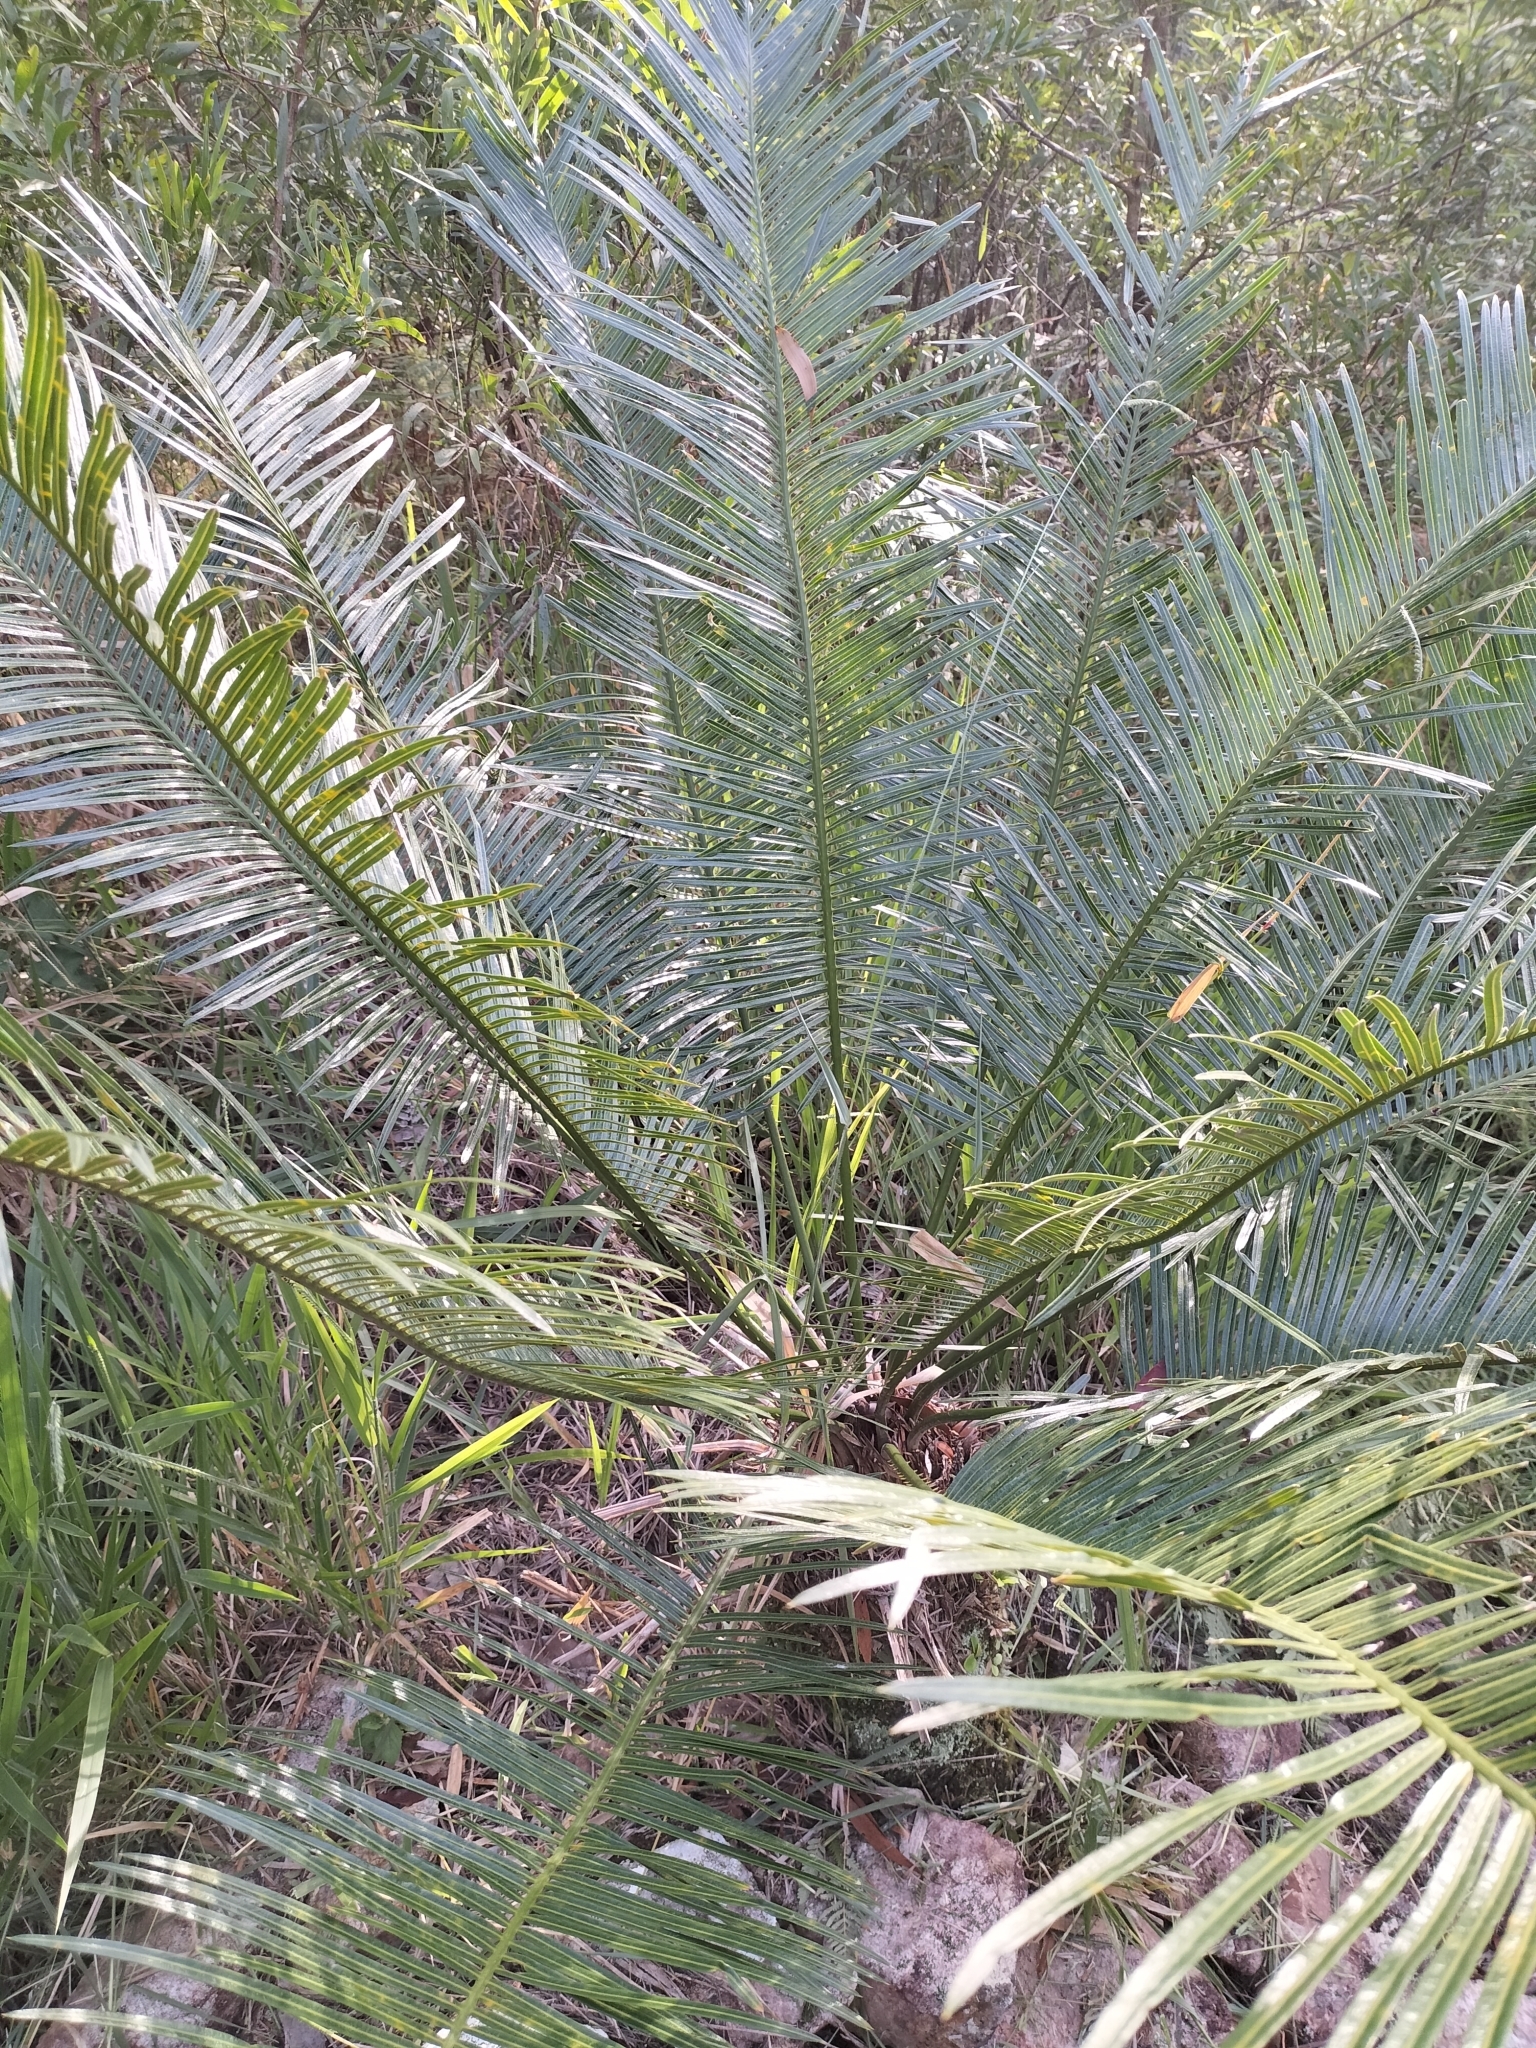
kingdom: Plantae
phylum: Tracheophyta
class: Cycadopsida
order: Cycadales
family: Cycadaceae
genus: Cycas
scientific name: Cycas media
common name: Queensland cycas
